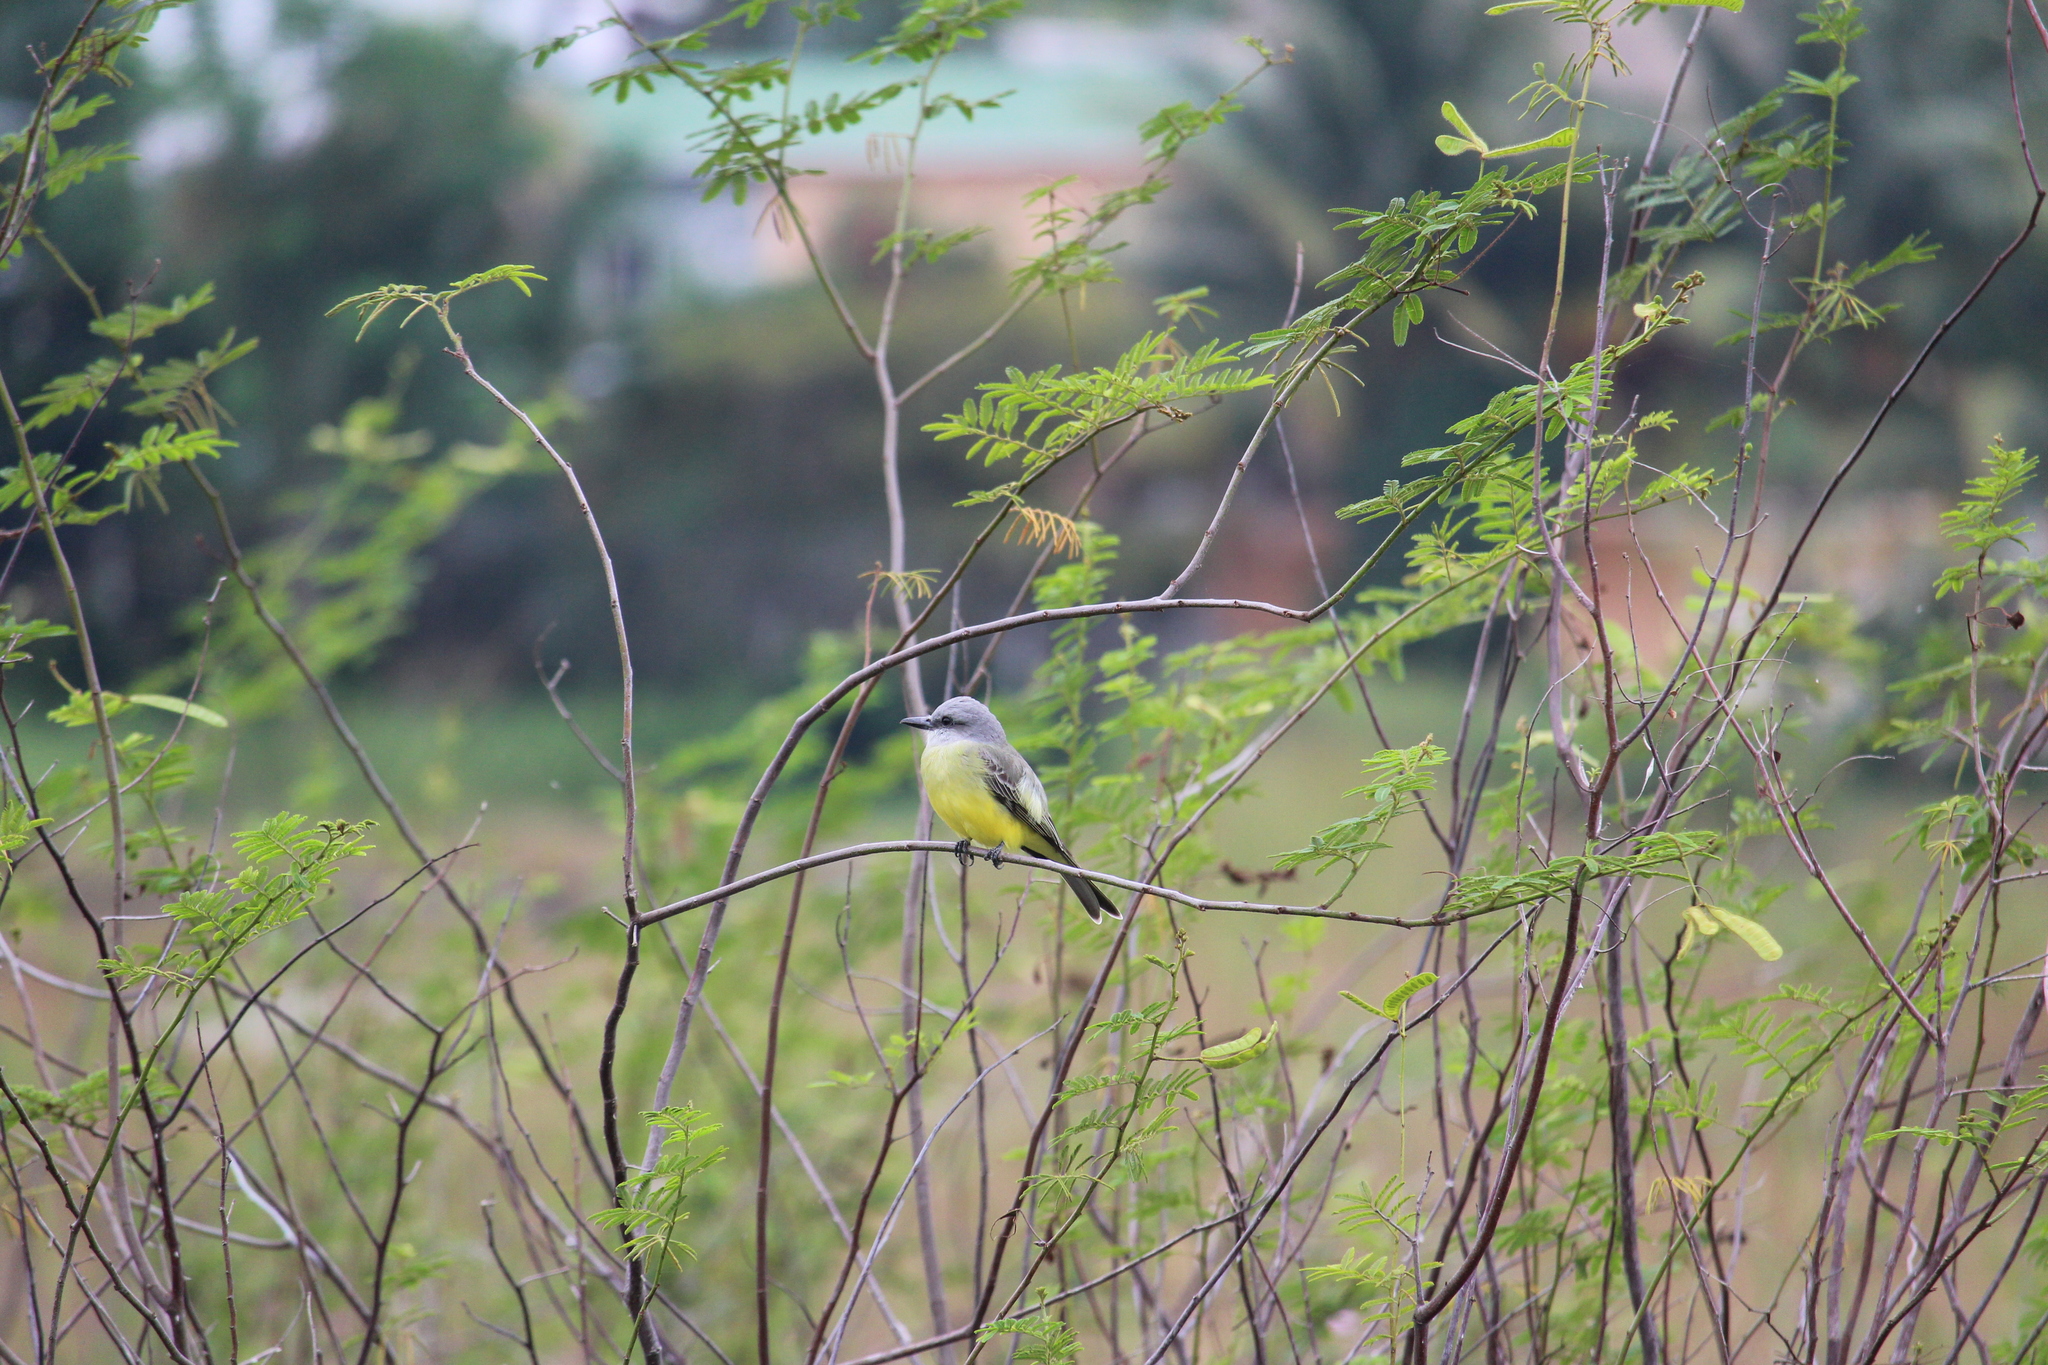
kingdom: Animalia
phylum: Chordata
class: Aves
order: Passeriformes
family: Tyrannidae
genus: Tyrannus
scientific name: Tyrannus melancholicus
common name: Tropical kingbird
